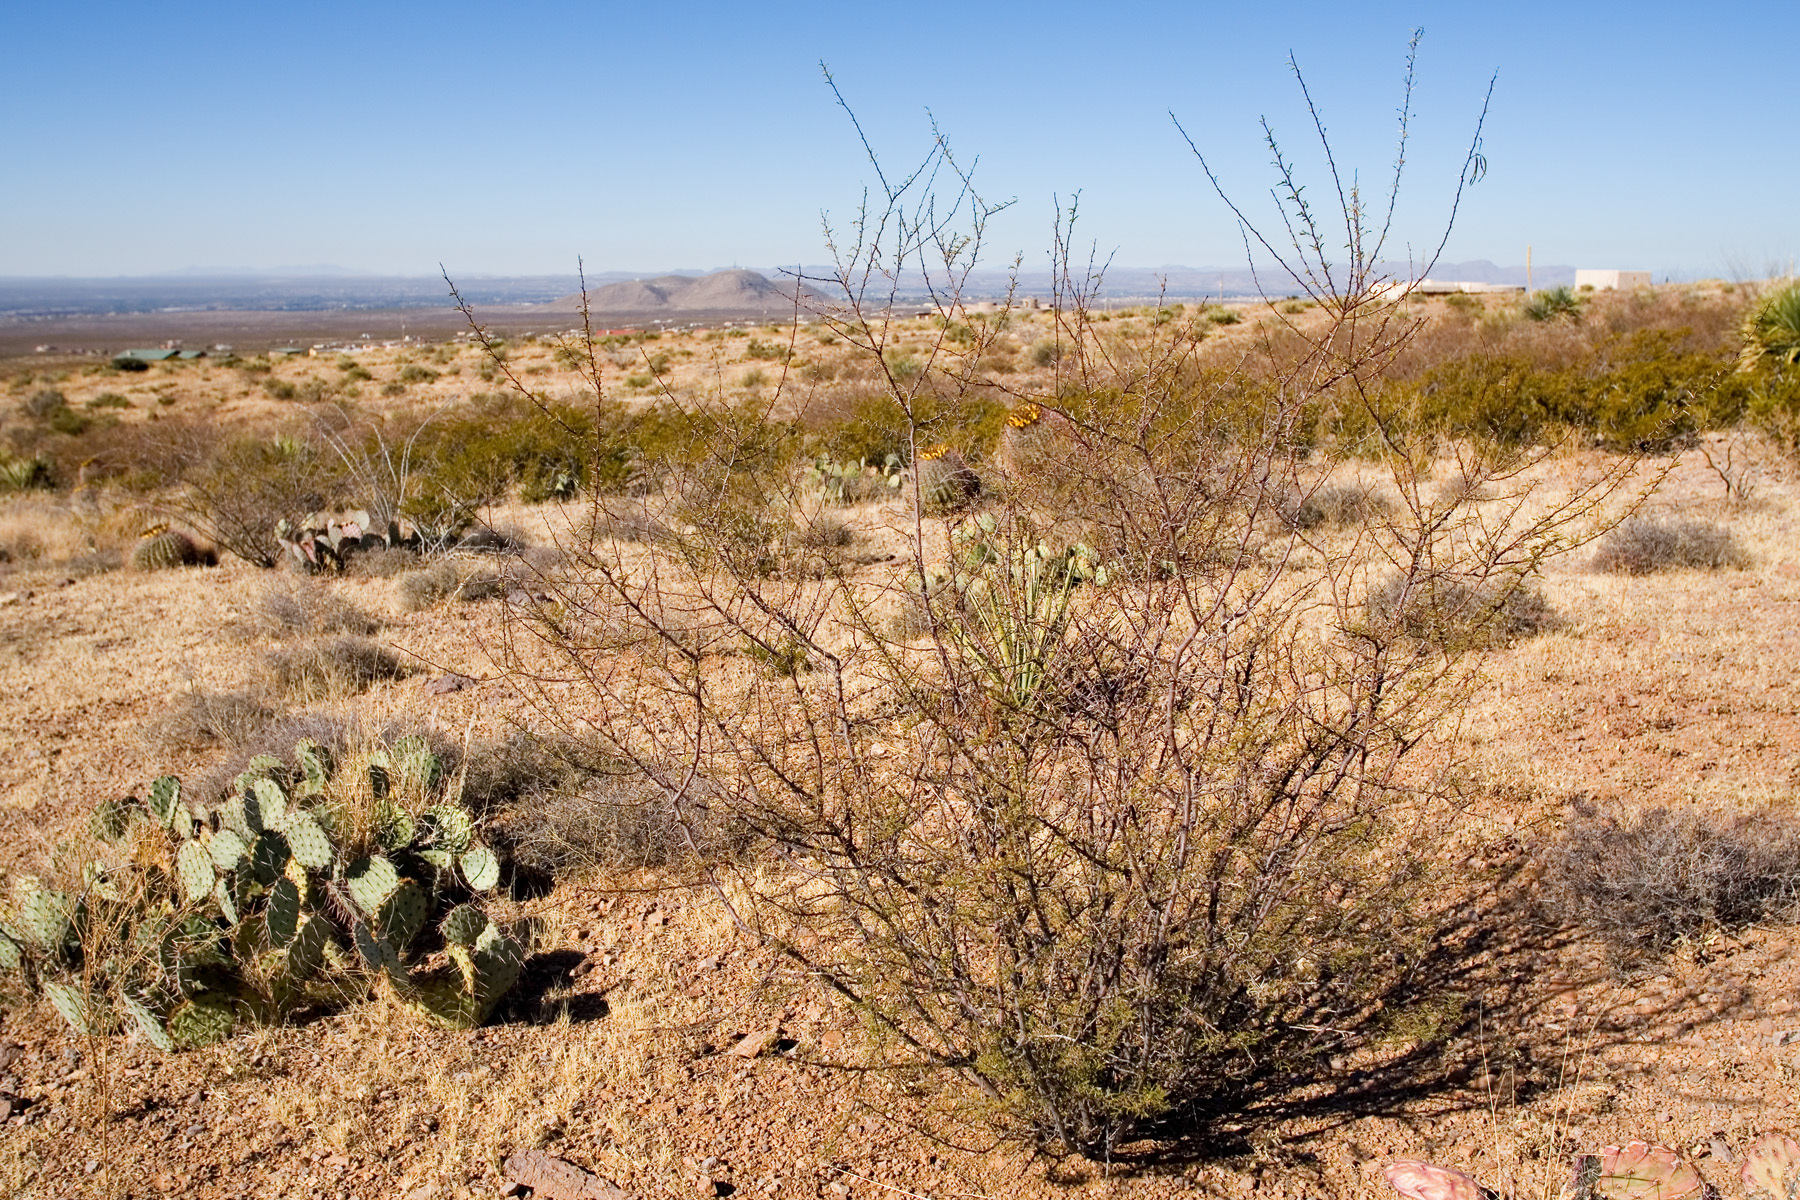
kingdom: Plantae
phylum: Tracheophyta
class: Magnoliopsida
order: Fabales
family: Fabaceae
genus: Vachellia
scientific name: Vachellia vernicosa
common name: Viscid acacia
